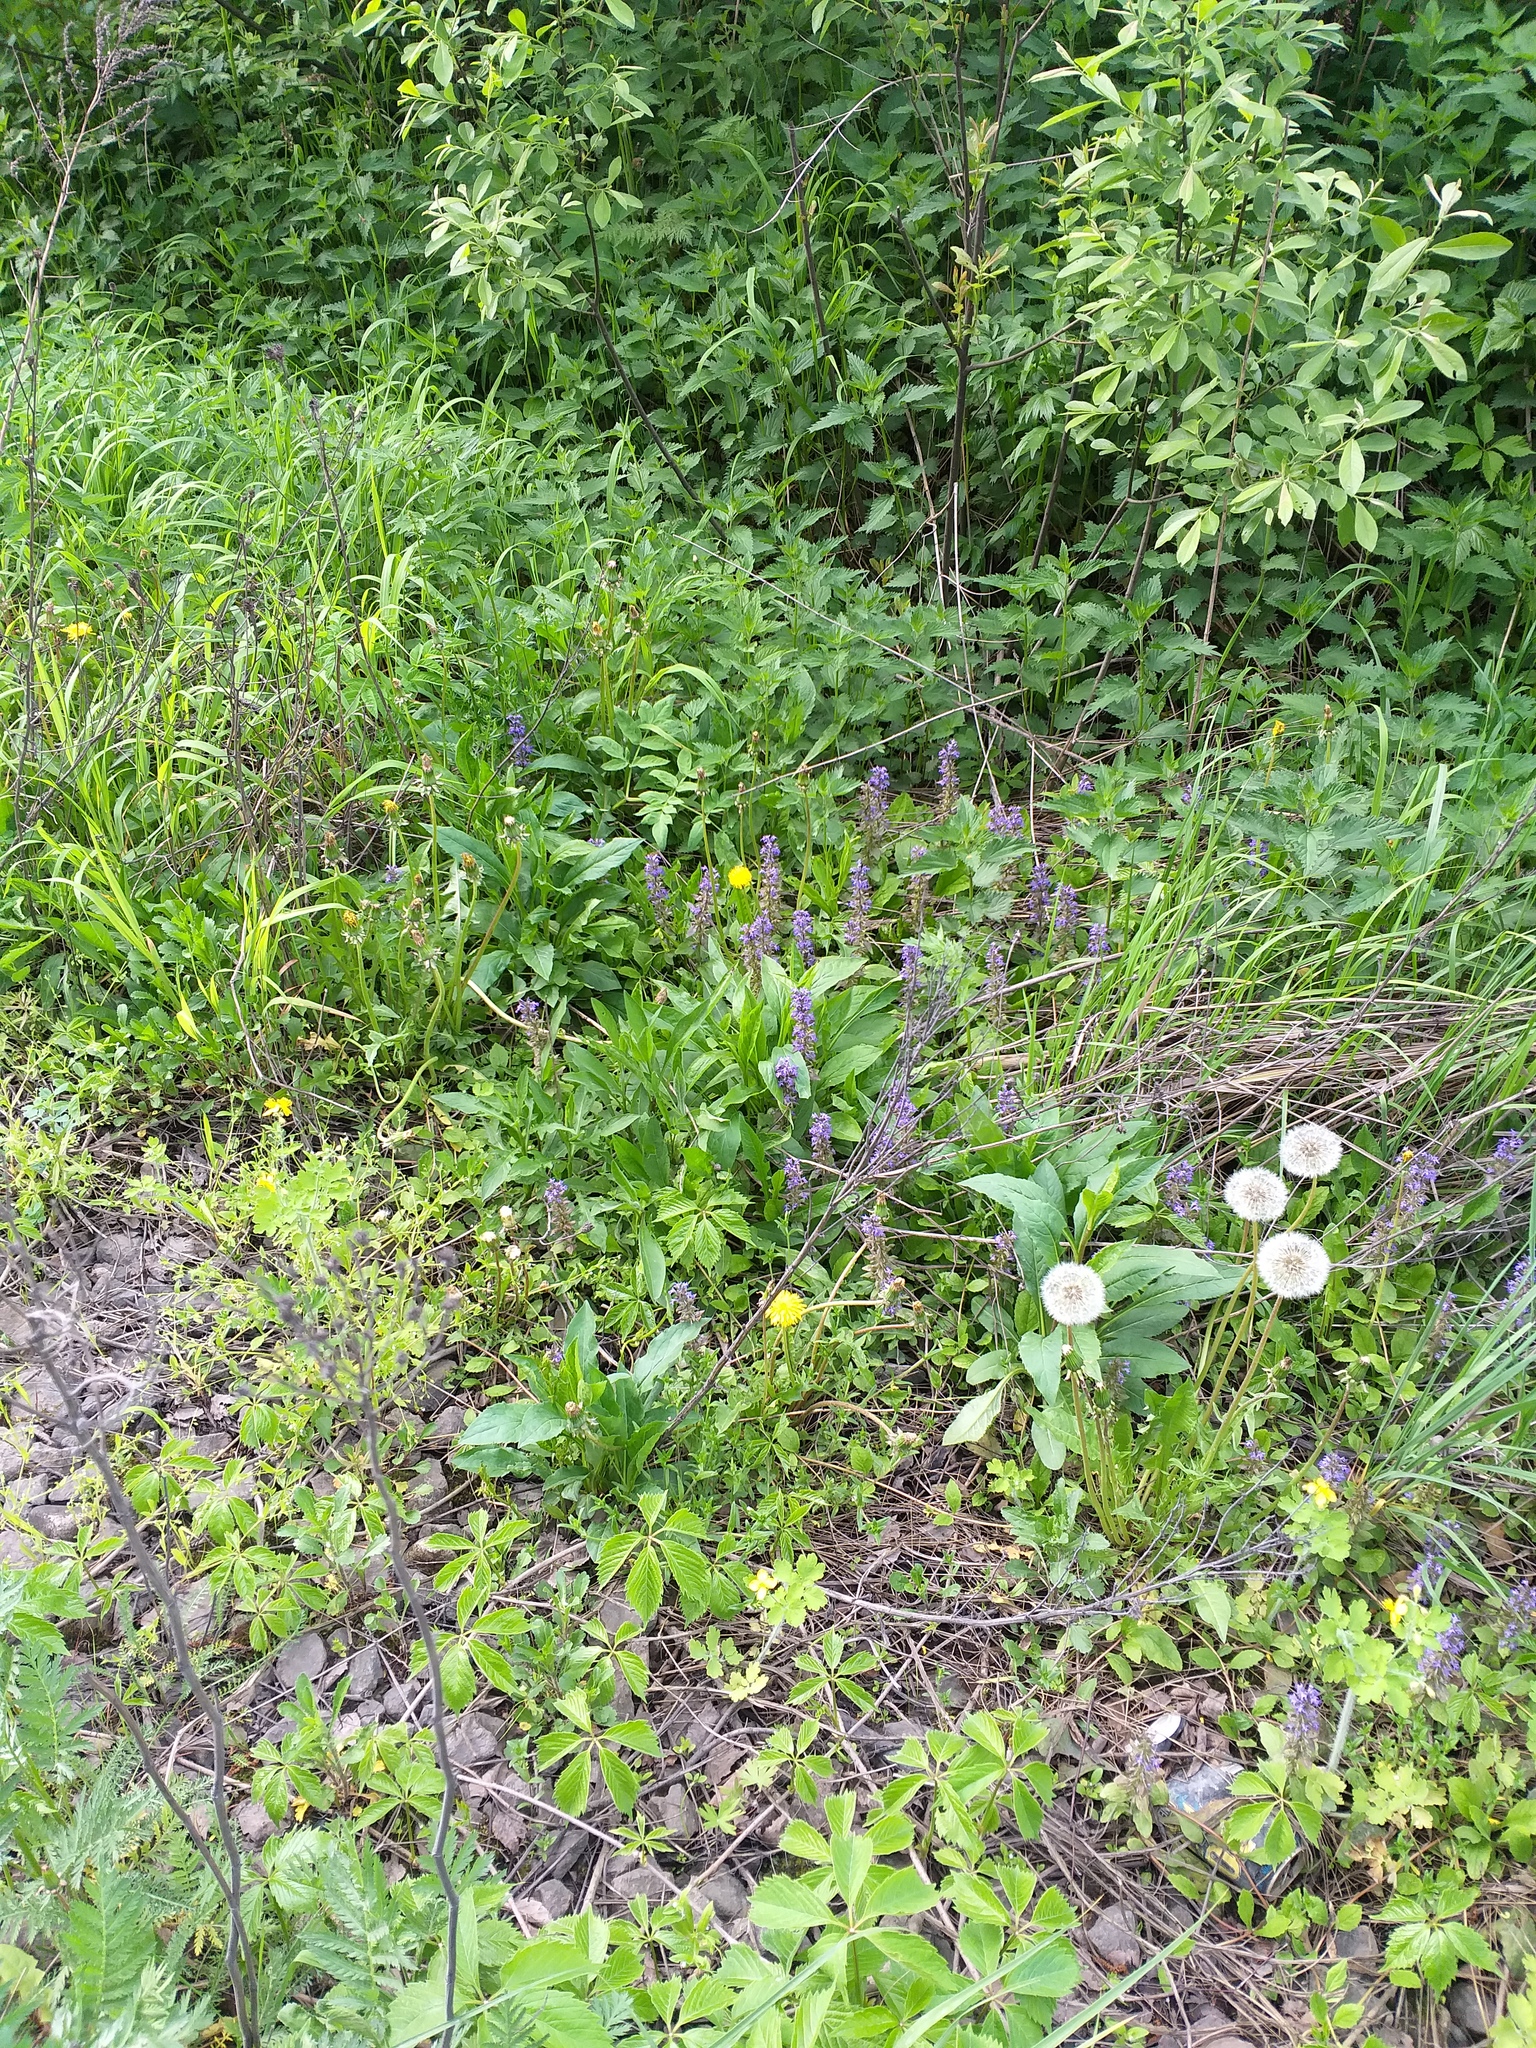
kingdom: Plantae
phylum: Tracheophyta
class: Magnoliopsida
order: Lamiales
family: Lamiaceae
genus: Ajuga
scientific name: Ajuga reptans
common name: Bugle
